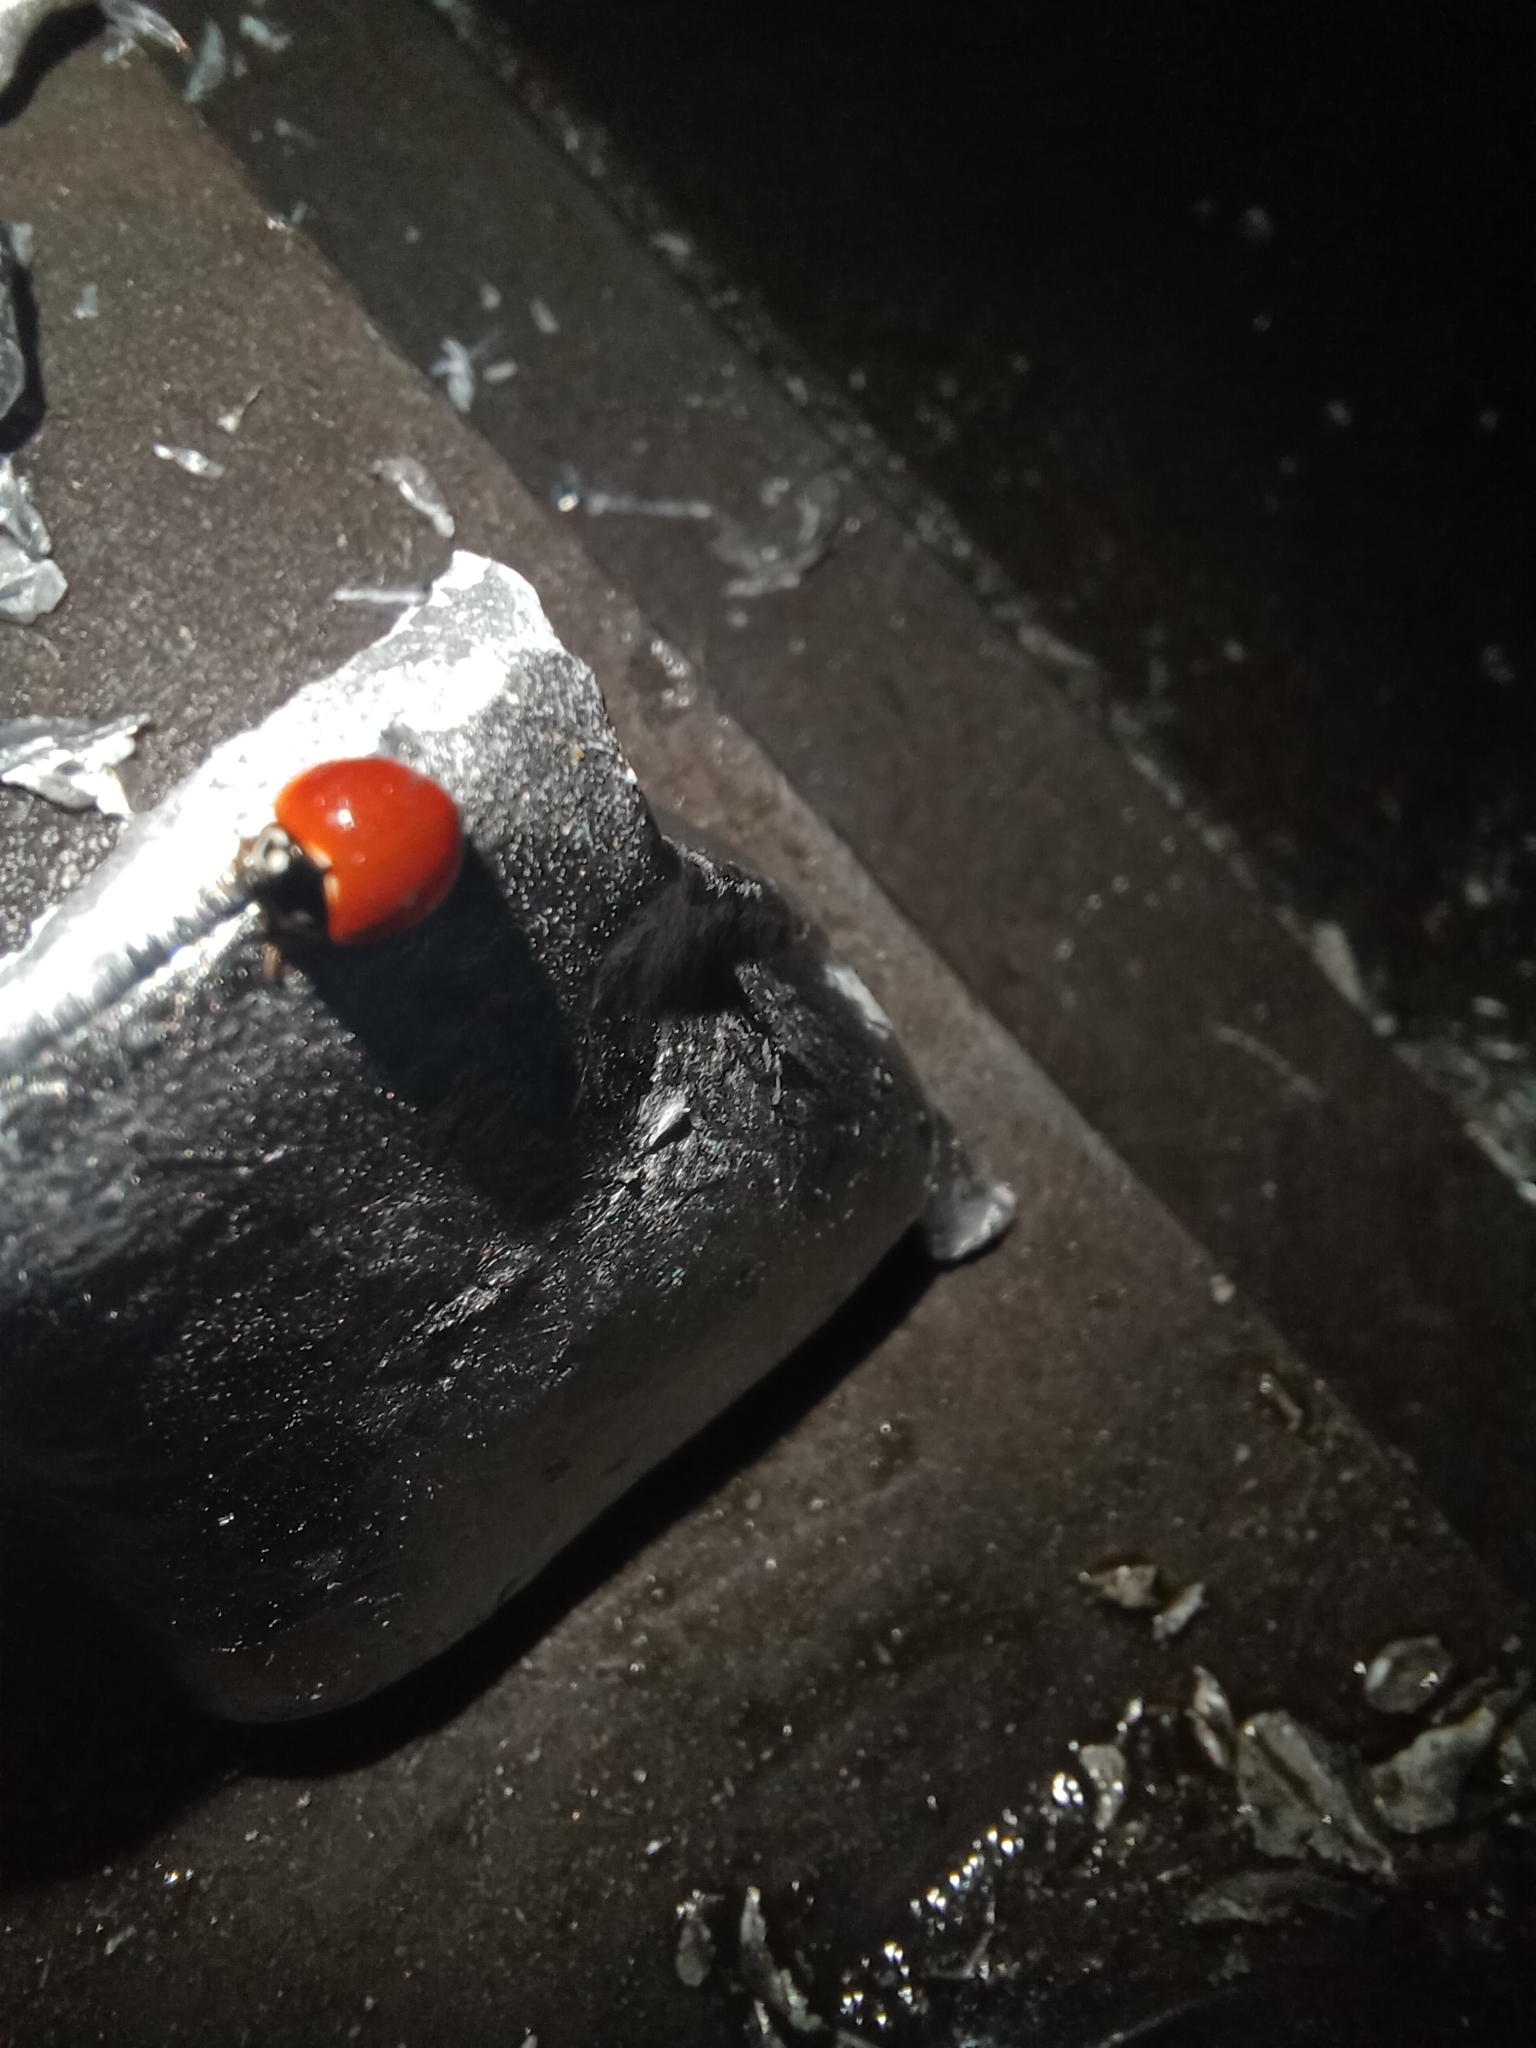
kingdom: Animalia
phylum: Arthropoda
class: Insecta
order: Coleoptera
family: Coccinellidae
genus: Cycloneda
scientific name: Cycloneda sanguinea
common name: Ladybird beetle
